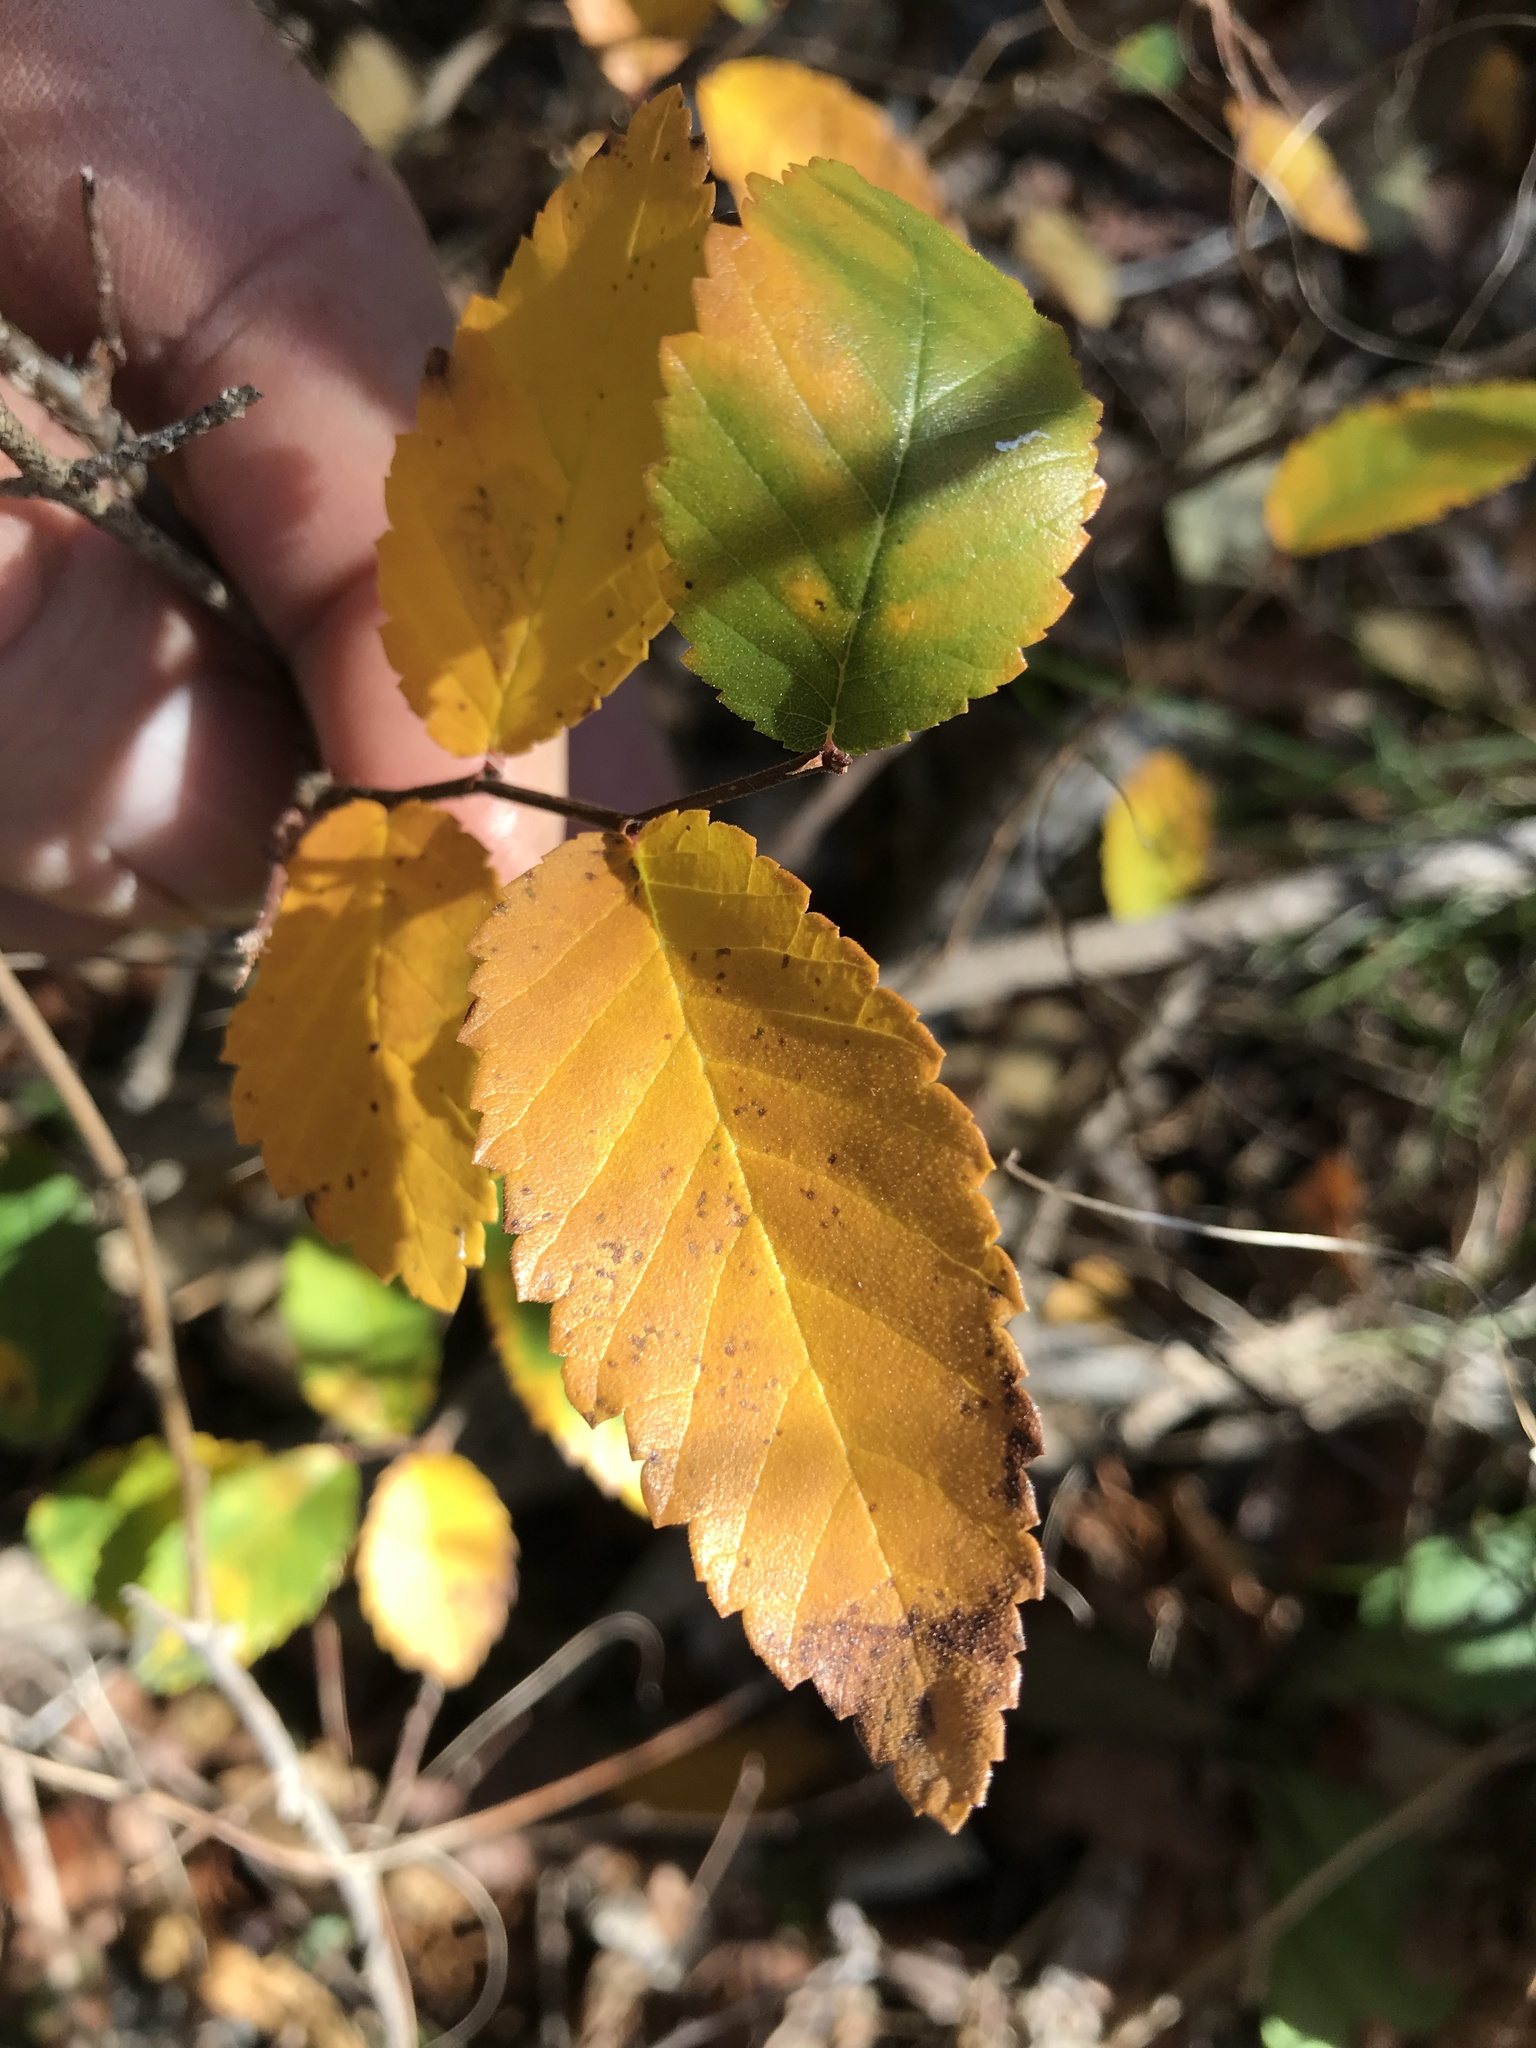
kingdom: Plantae
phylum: Tracheophyta
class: Magnoliopsida
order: Rosales
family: Ulmaceae
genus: Ulmus
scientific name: Ulmus crassifolia
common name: Basket elm
